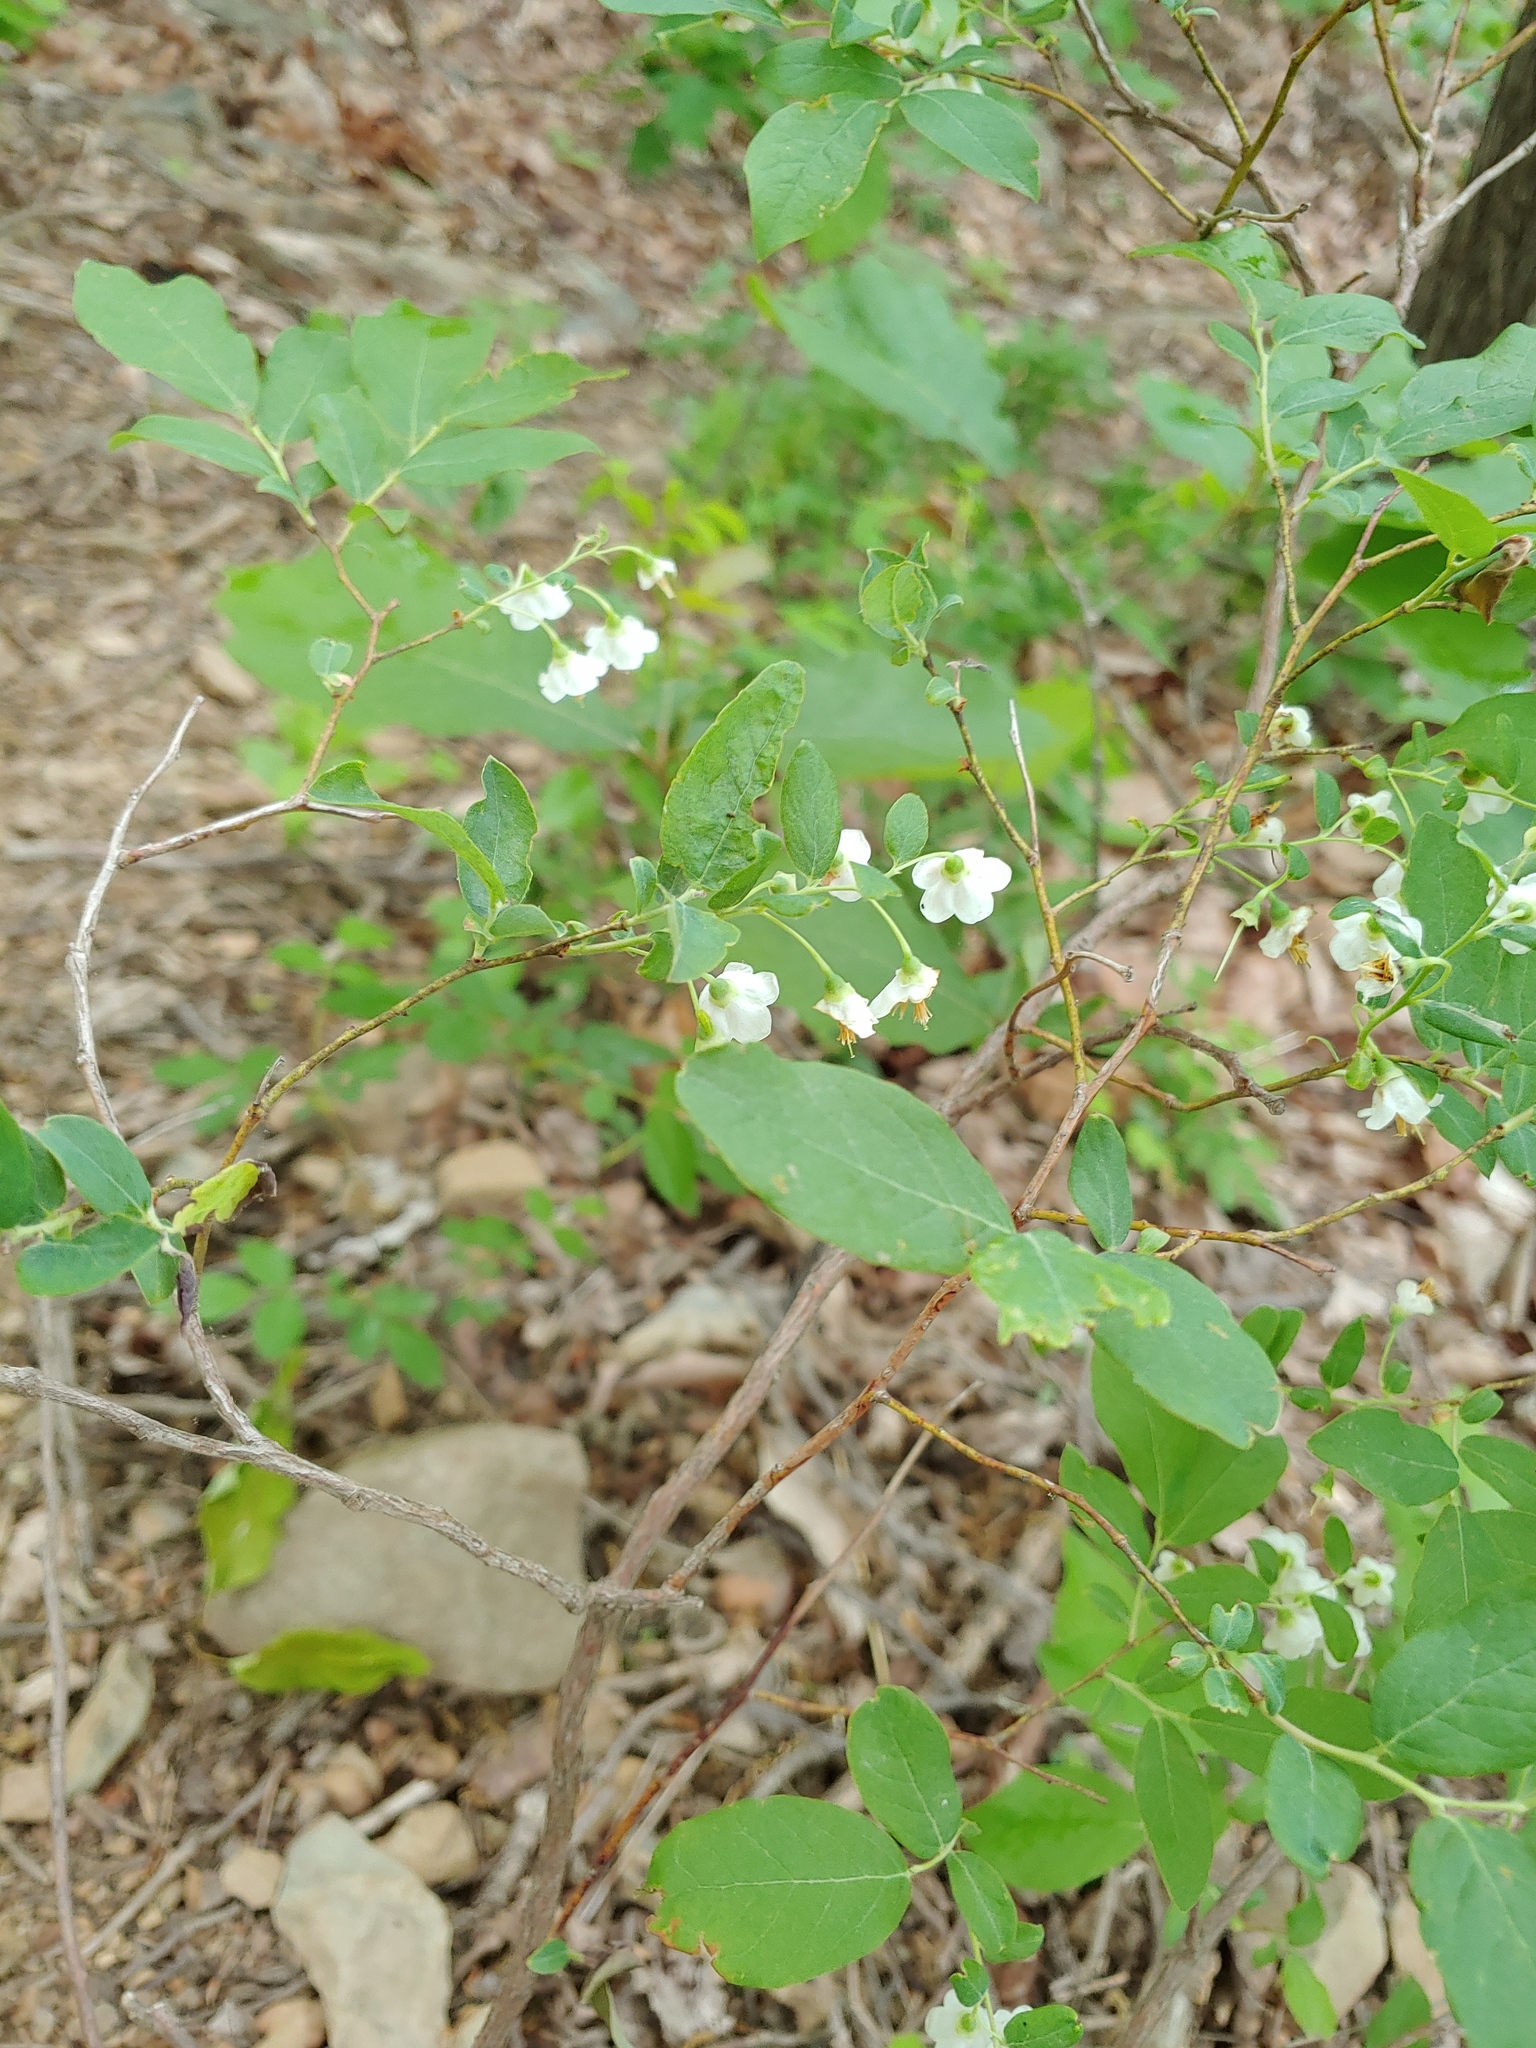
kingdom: Plantae
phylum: Tracheophyta
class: Magnoliopsida
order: Ericales
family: Ericaceae
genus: Vaccinium
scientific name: Vaccinium stamineum
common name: Deerberry
